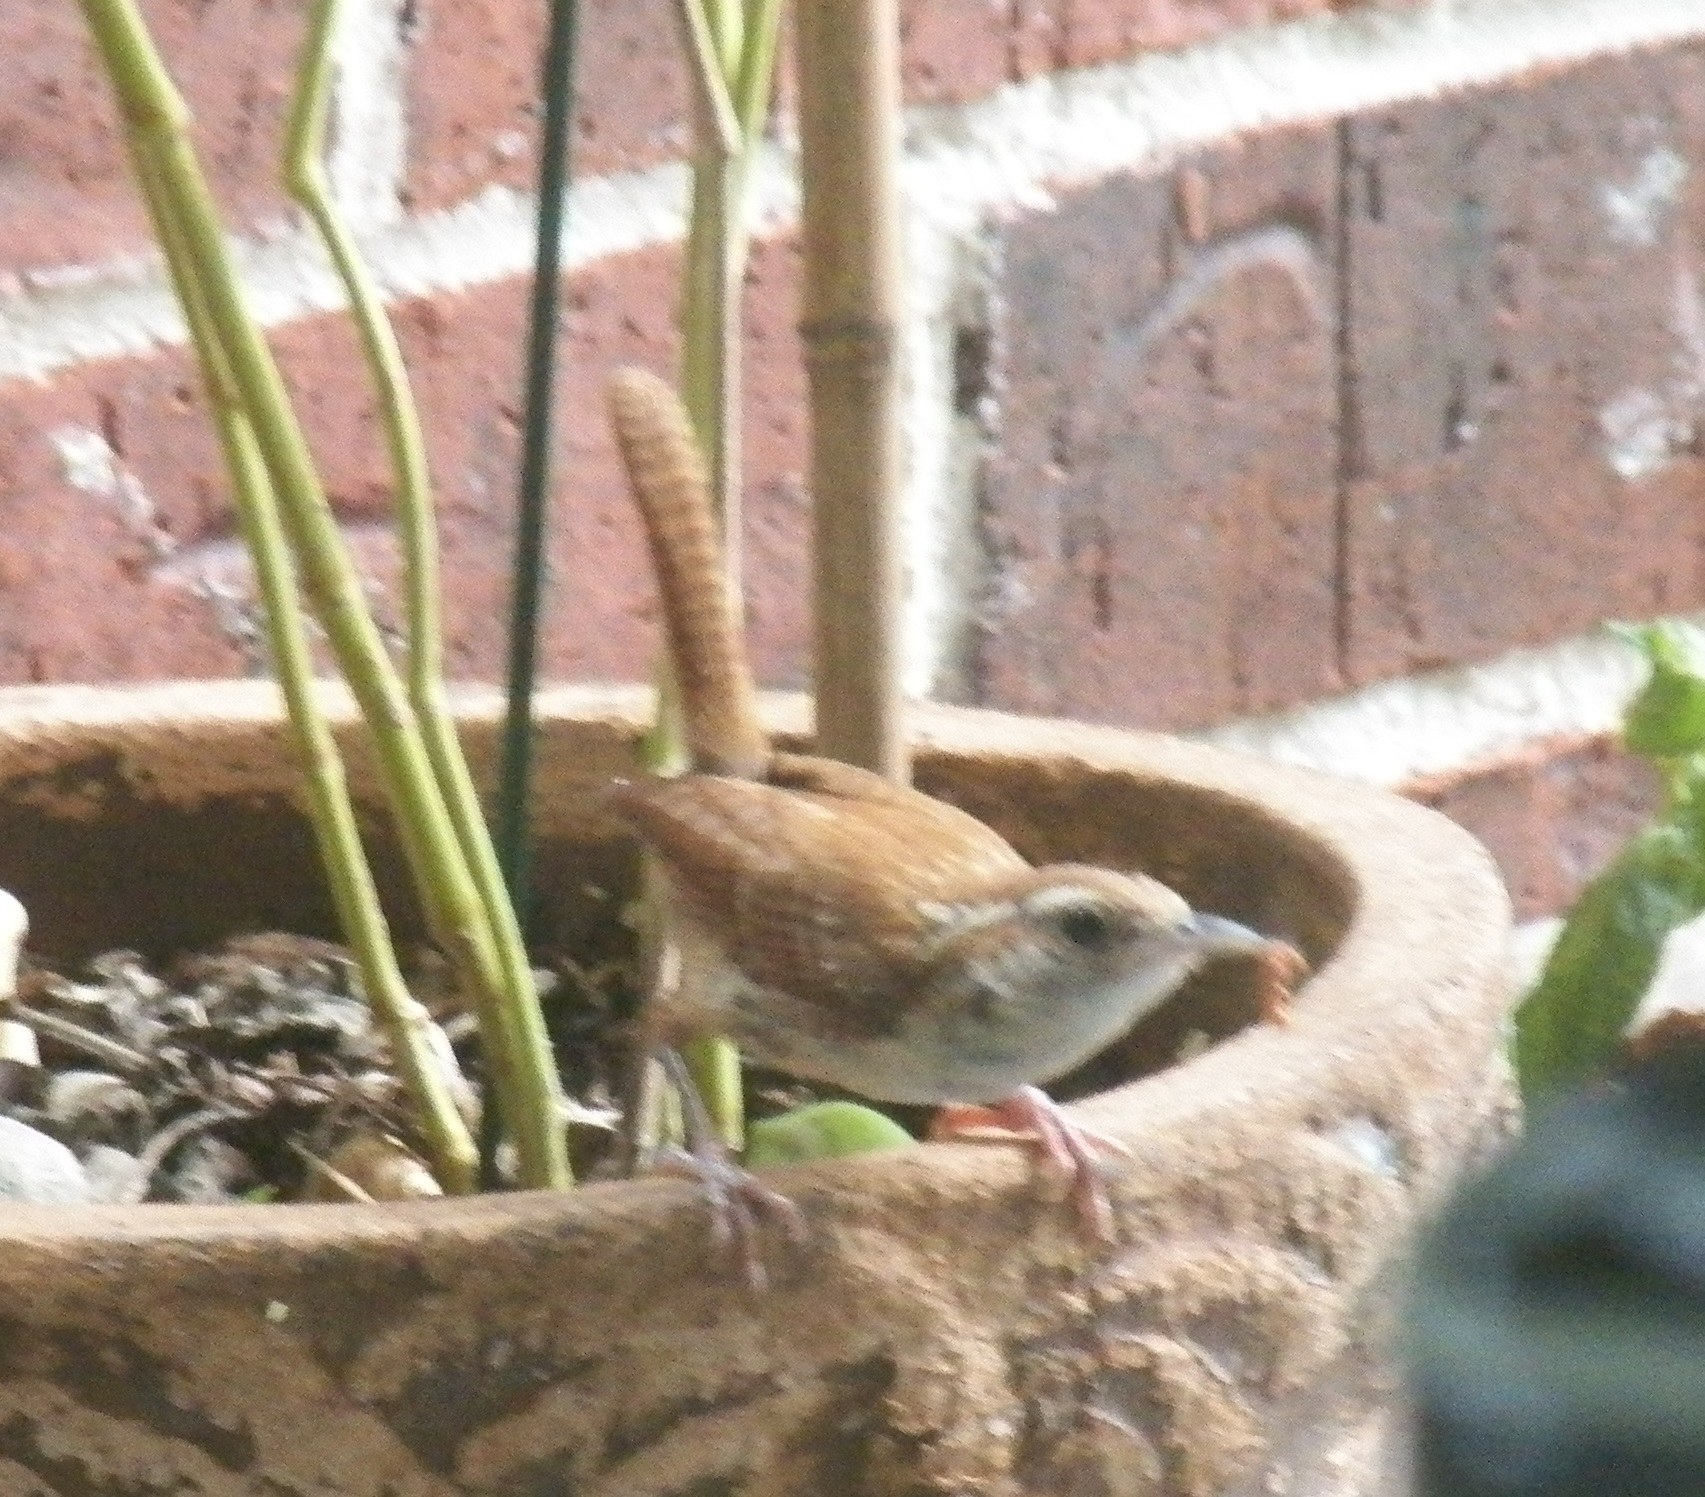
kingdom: Animalia
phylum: Chordata
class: Aves
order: Passeriformes
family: Troglodytidae
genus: Thryothorus
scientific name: Thryothorus ludovicianus
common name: Carolina wren
